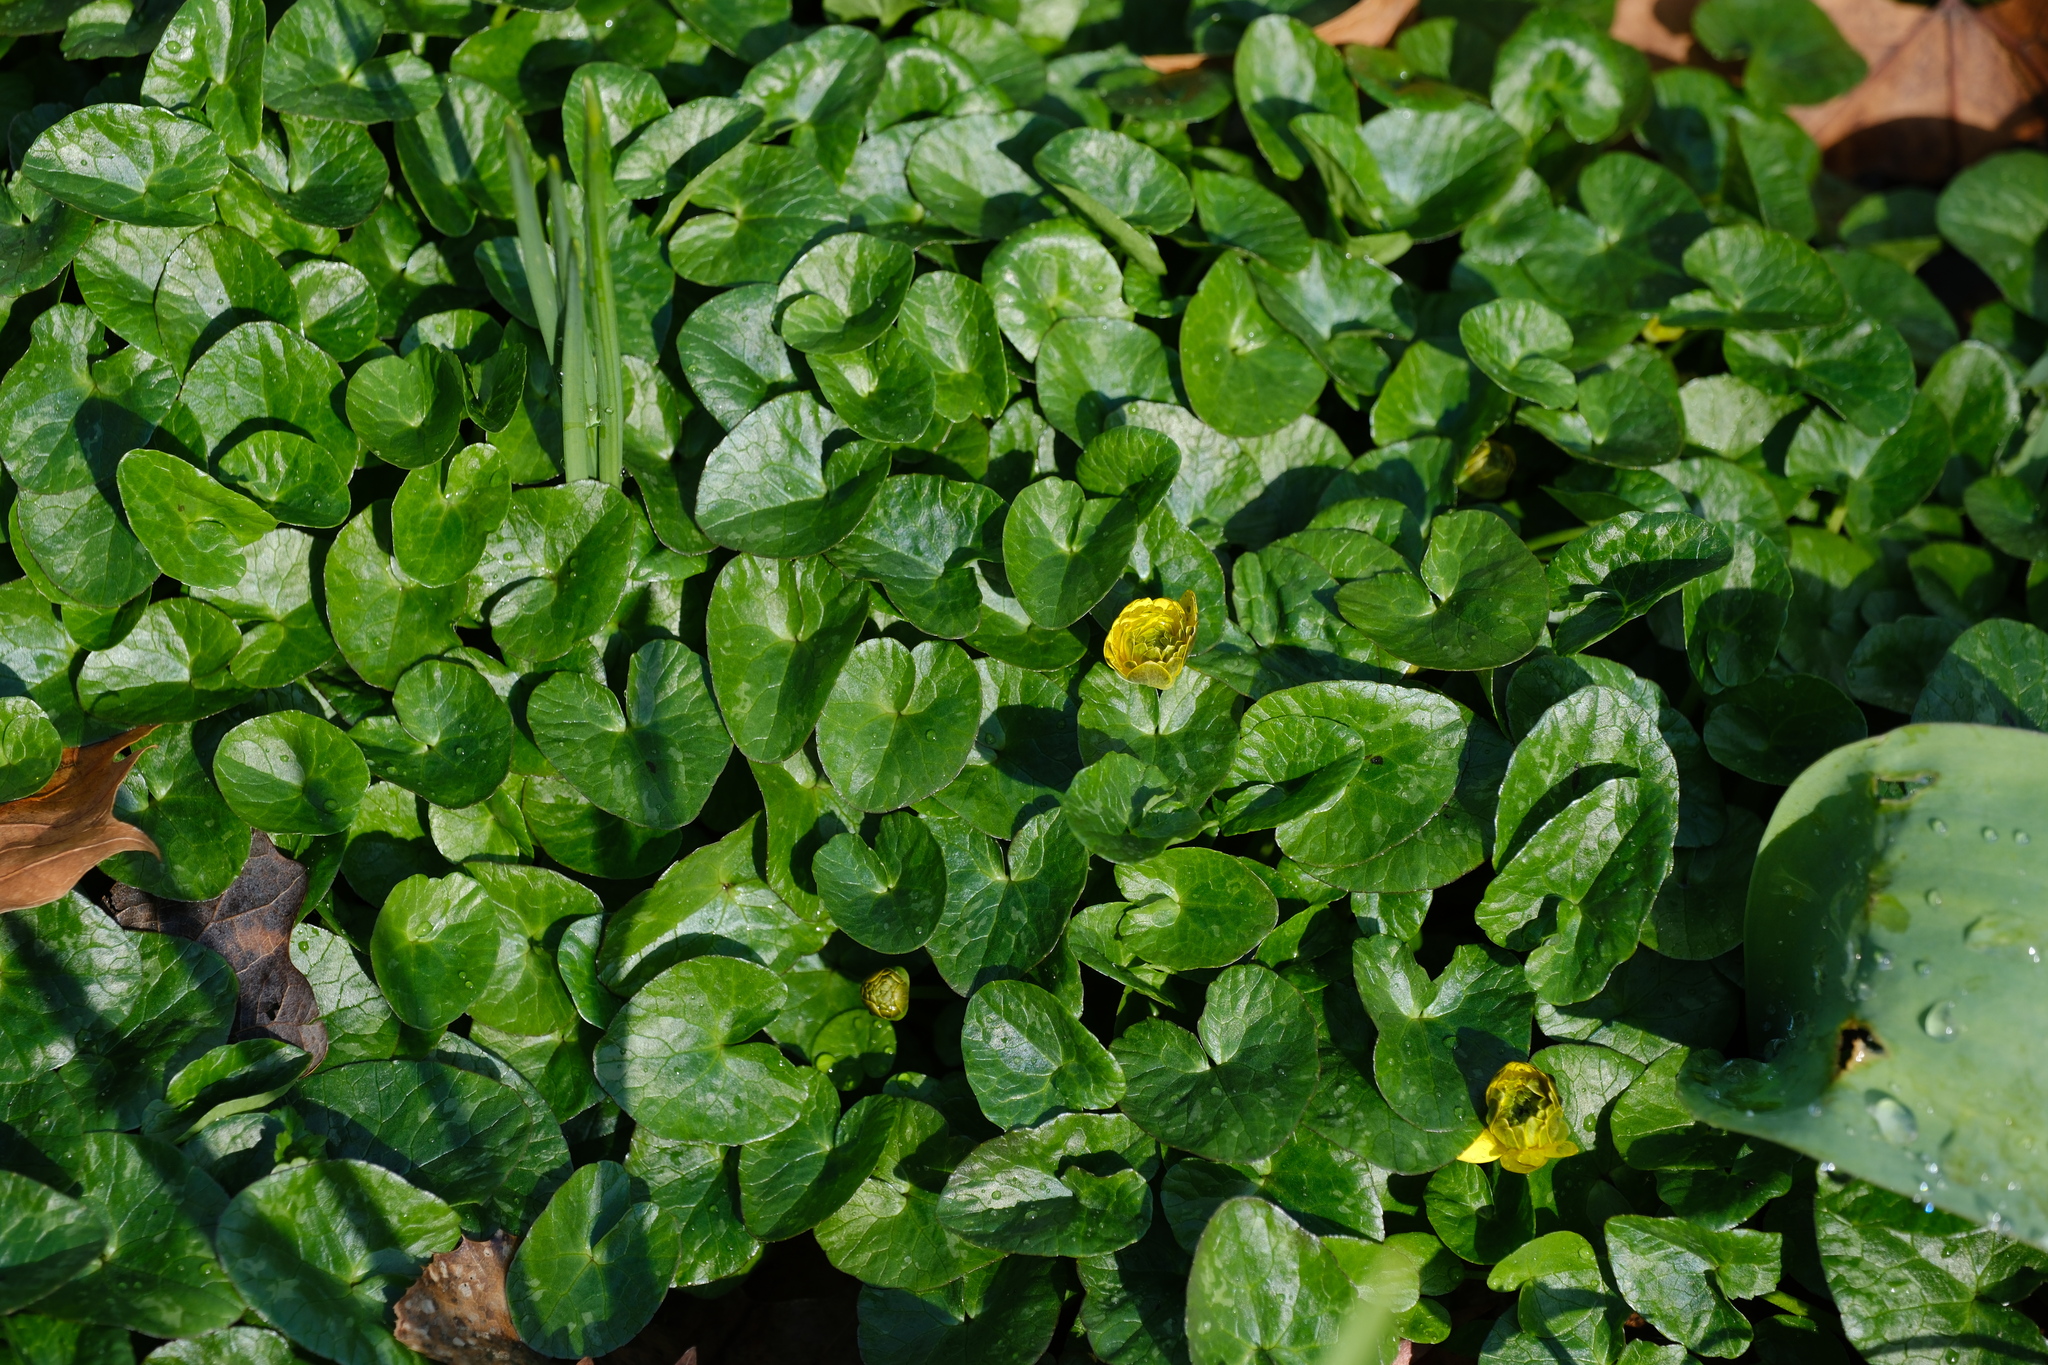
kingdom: Plantae
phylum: Tracheophyta
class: Magnoliopsida
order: Ranunculales
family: Ranunculaceae
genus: Ficaria
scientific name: Ficaria verna
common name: Lesser celandine
